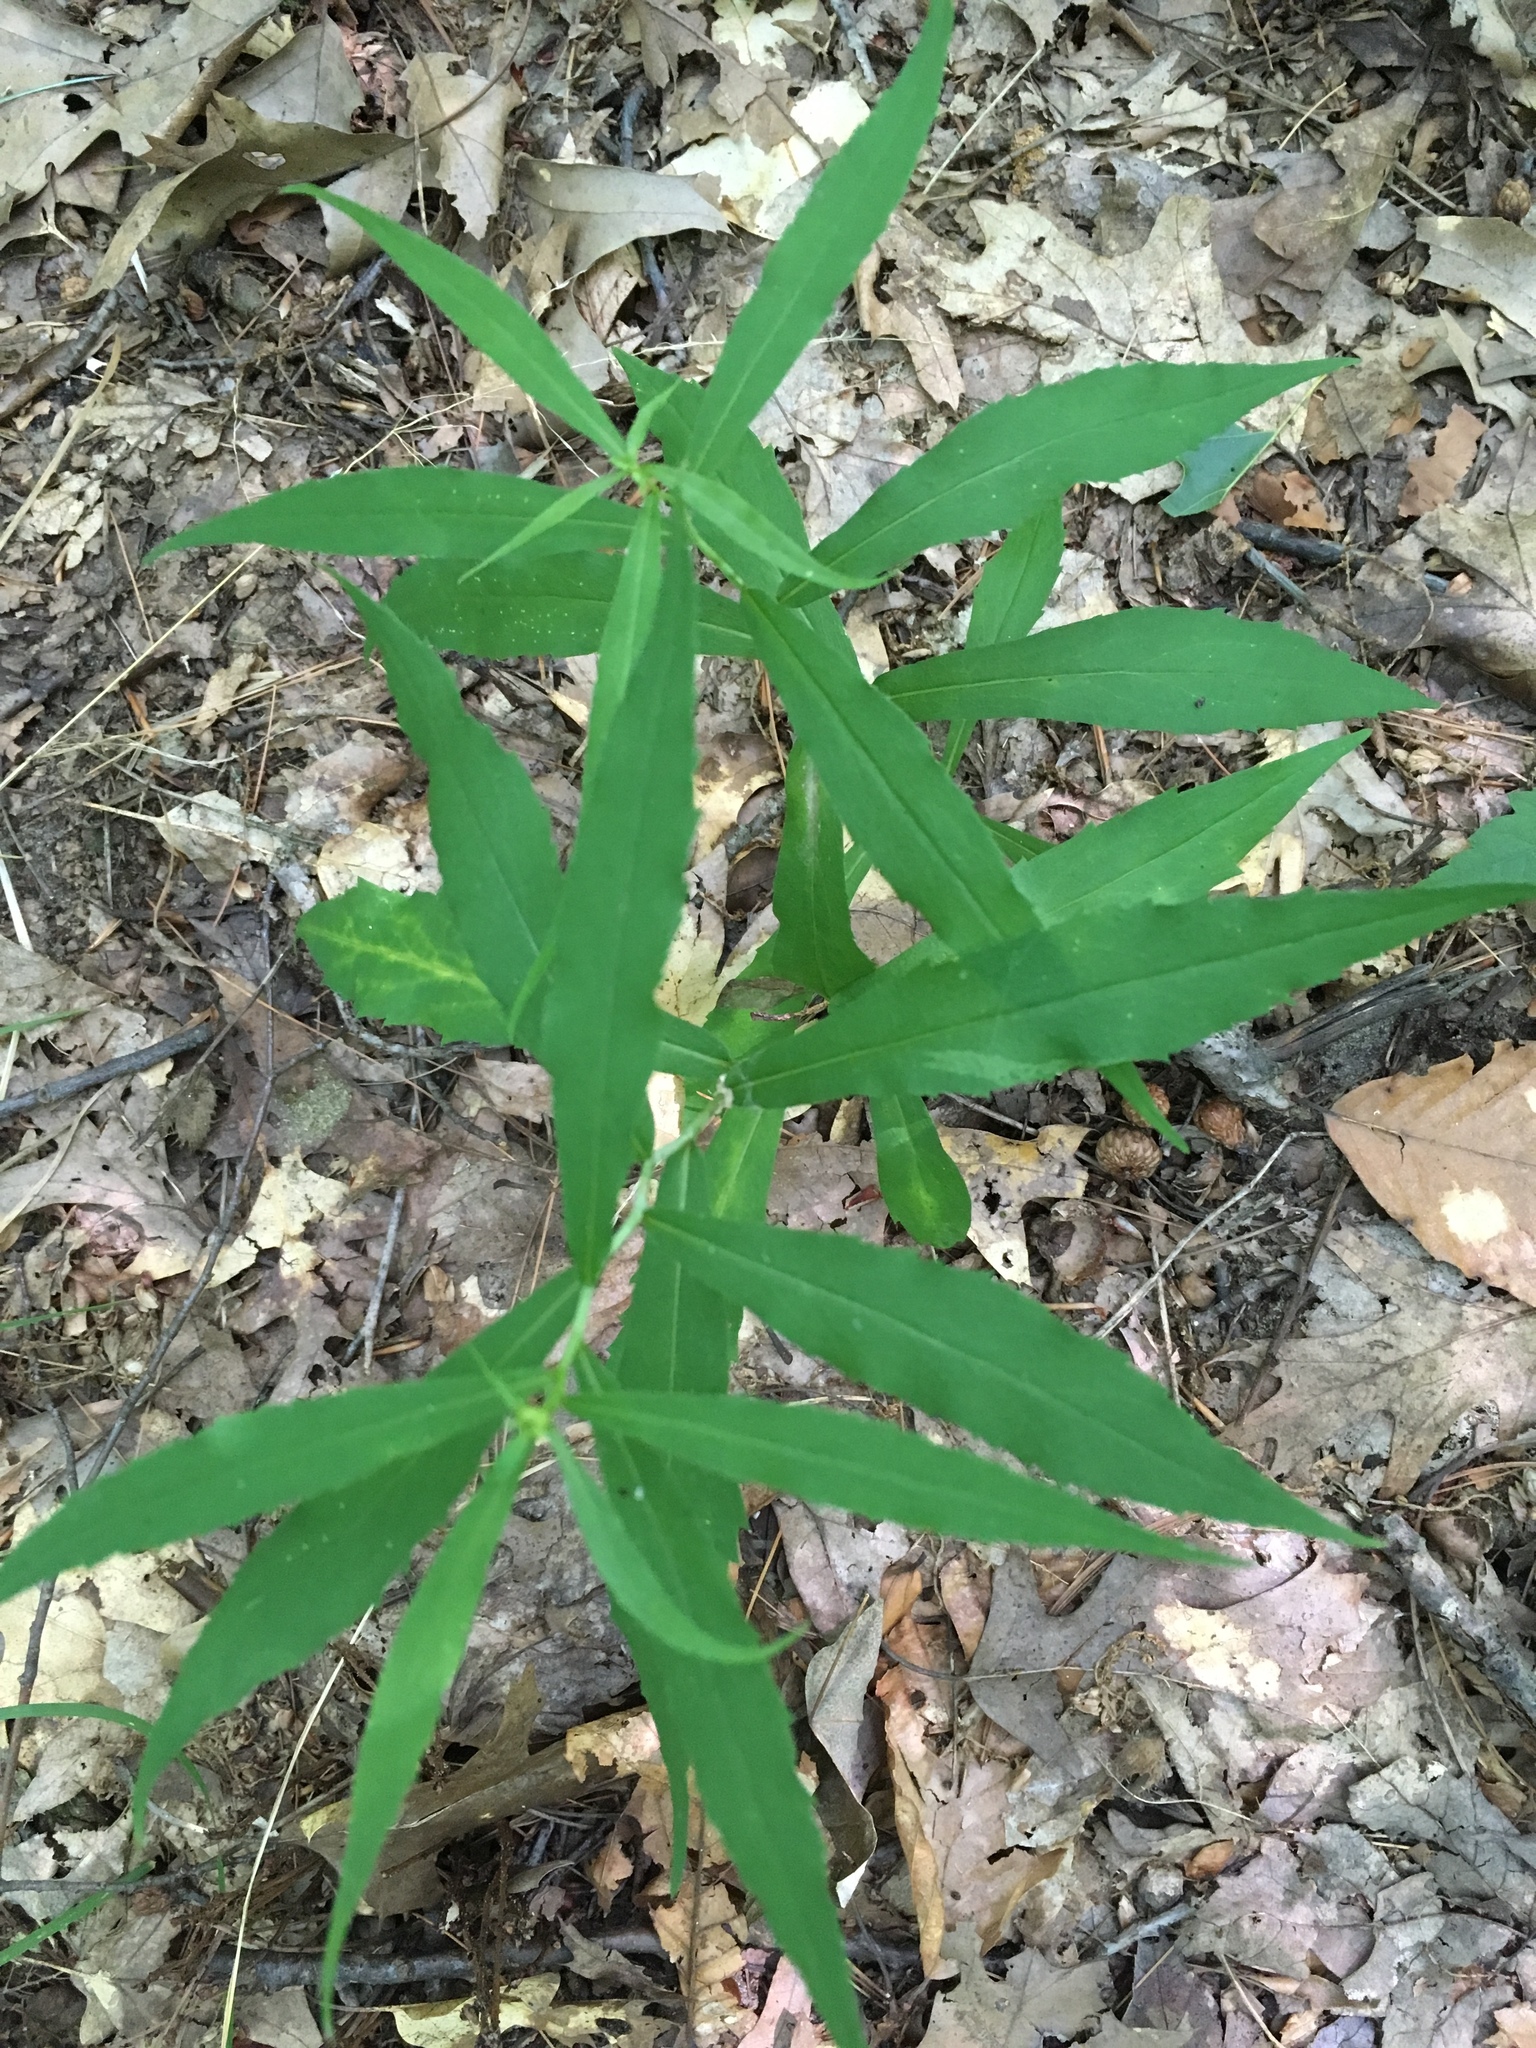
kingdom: Plantae
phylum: Tracheophyta
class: Magnoliopsida
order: Asterales
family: Asteraceae
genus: Solidago
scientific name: Solidago caesia
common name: Woodland goldenrod
